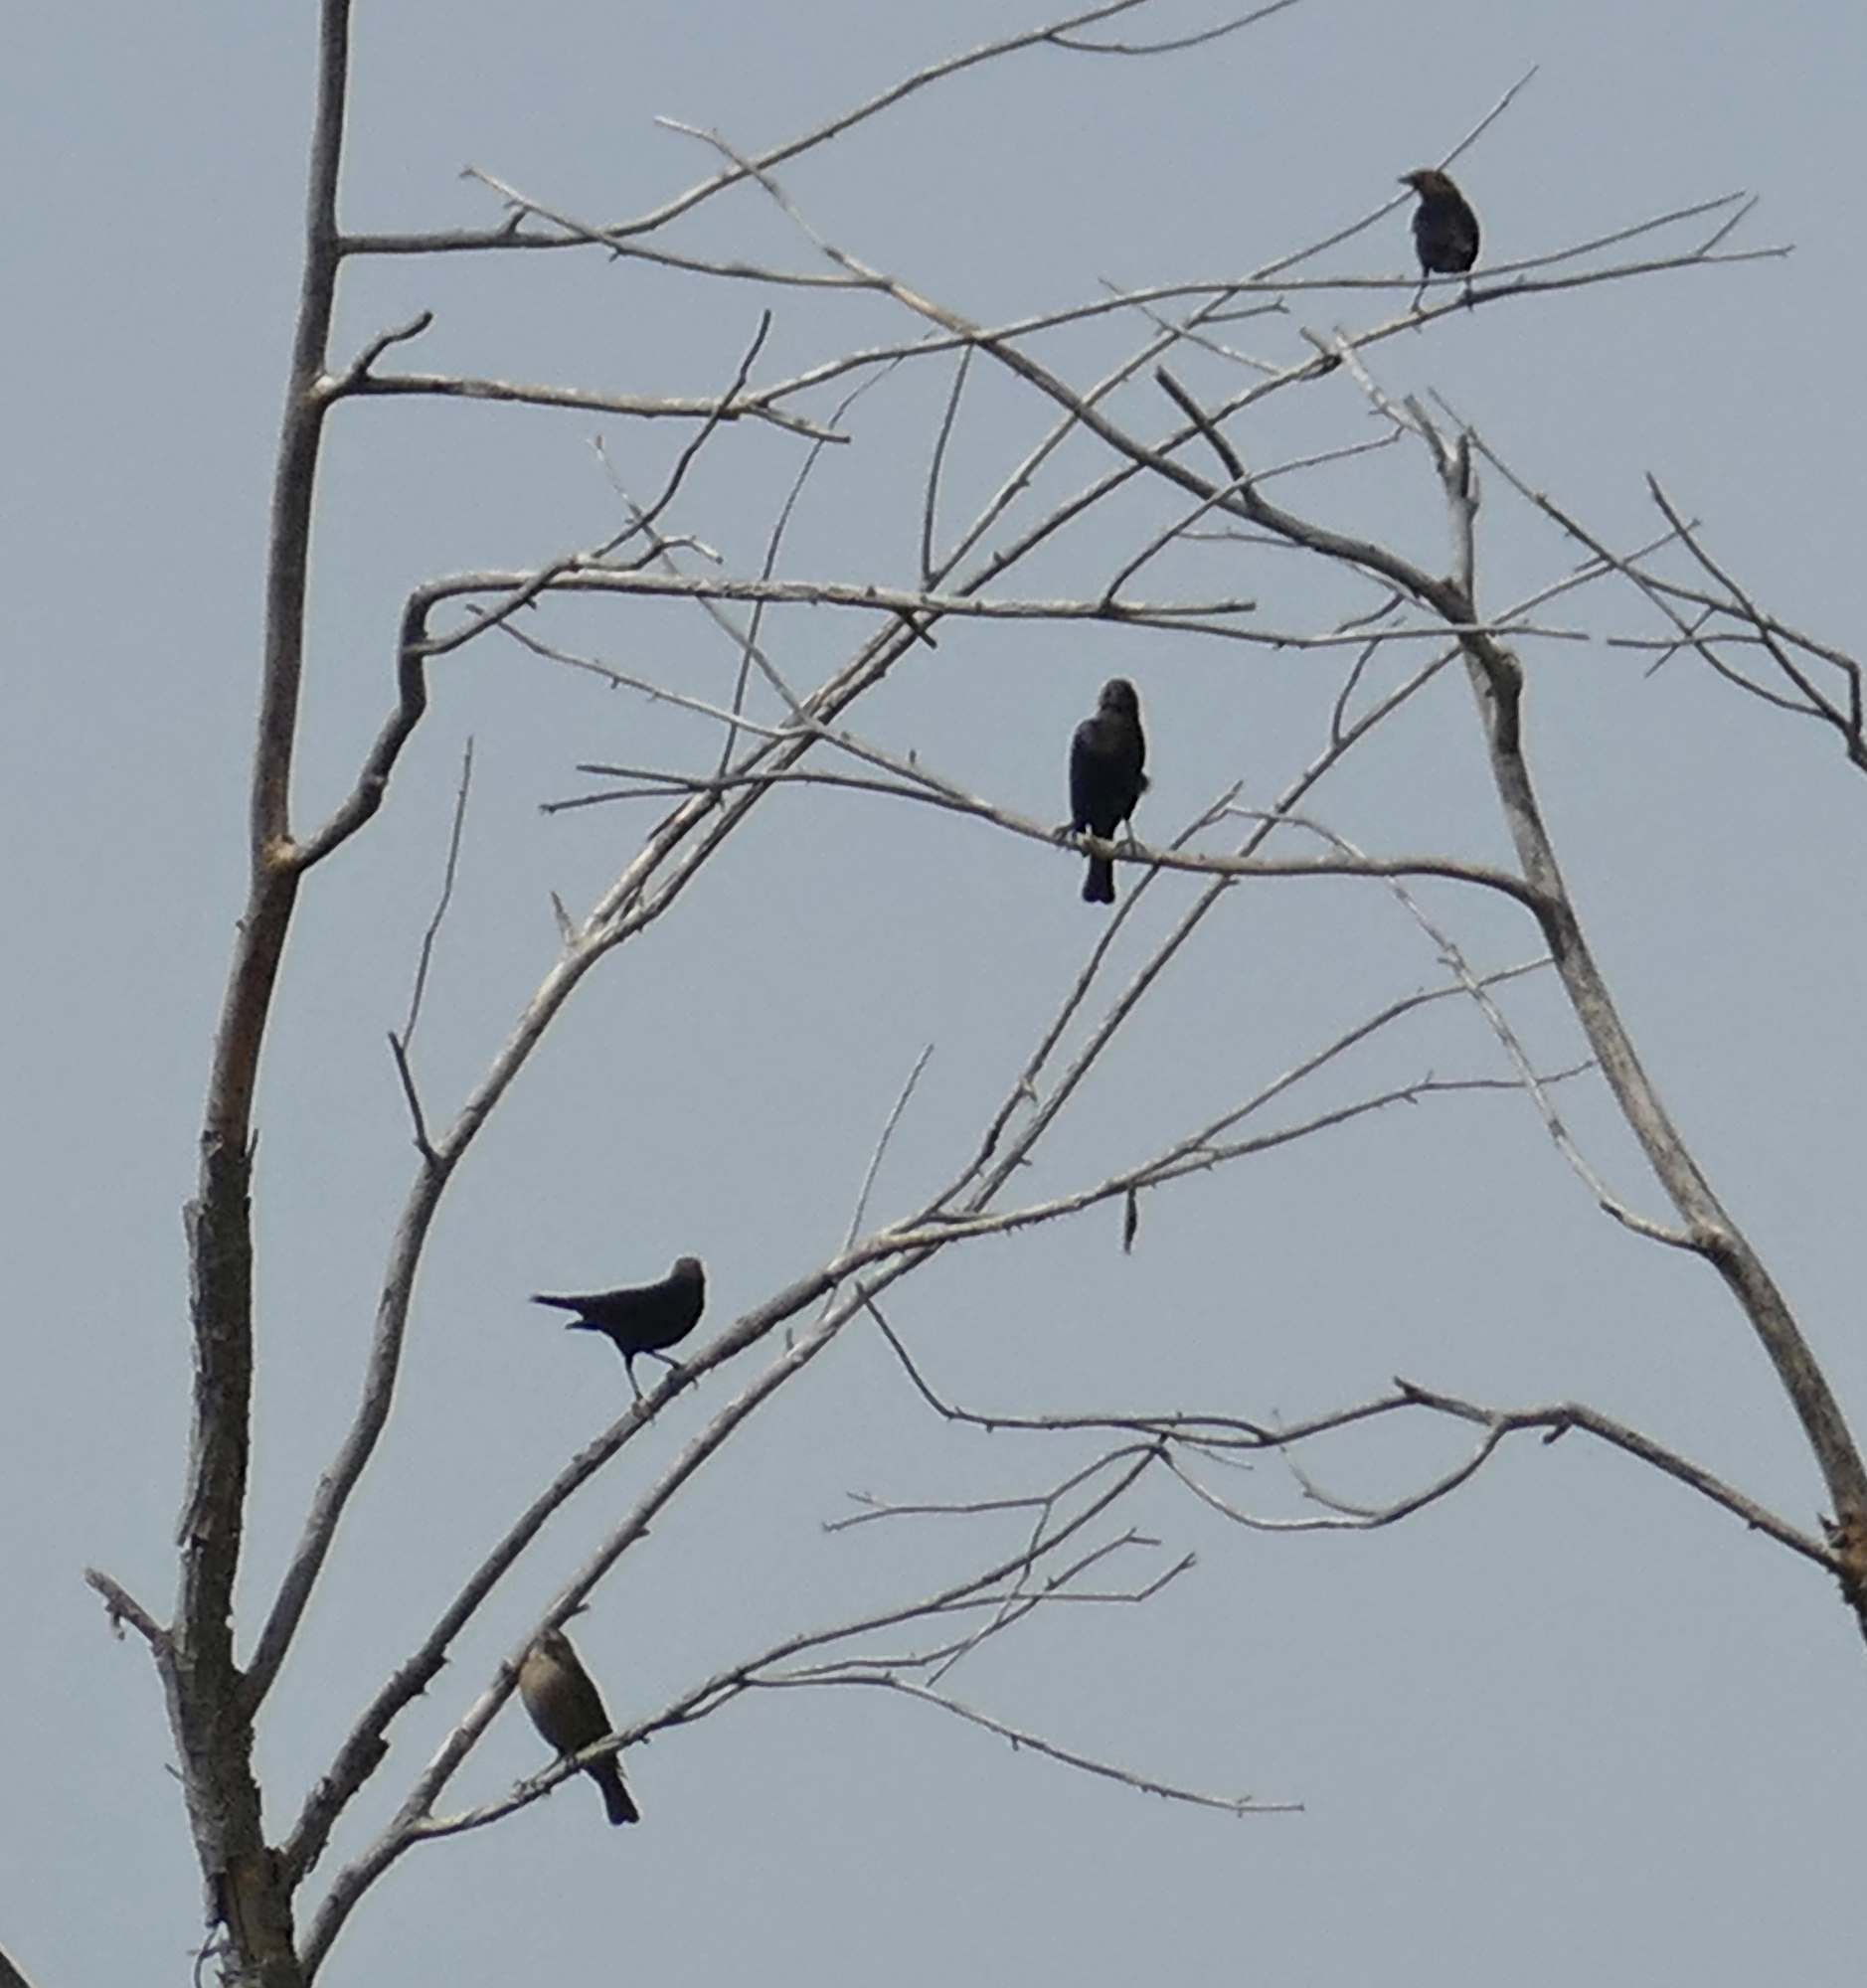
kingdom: Animalia
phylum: Chordata
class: Aves
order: Passeriformes
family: Icteridae
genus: Molothrus
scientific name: Molothrus ater
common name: Brown-headed cowbird
